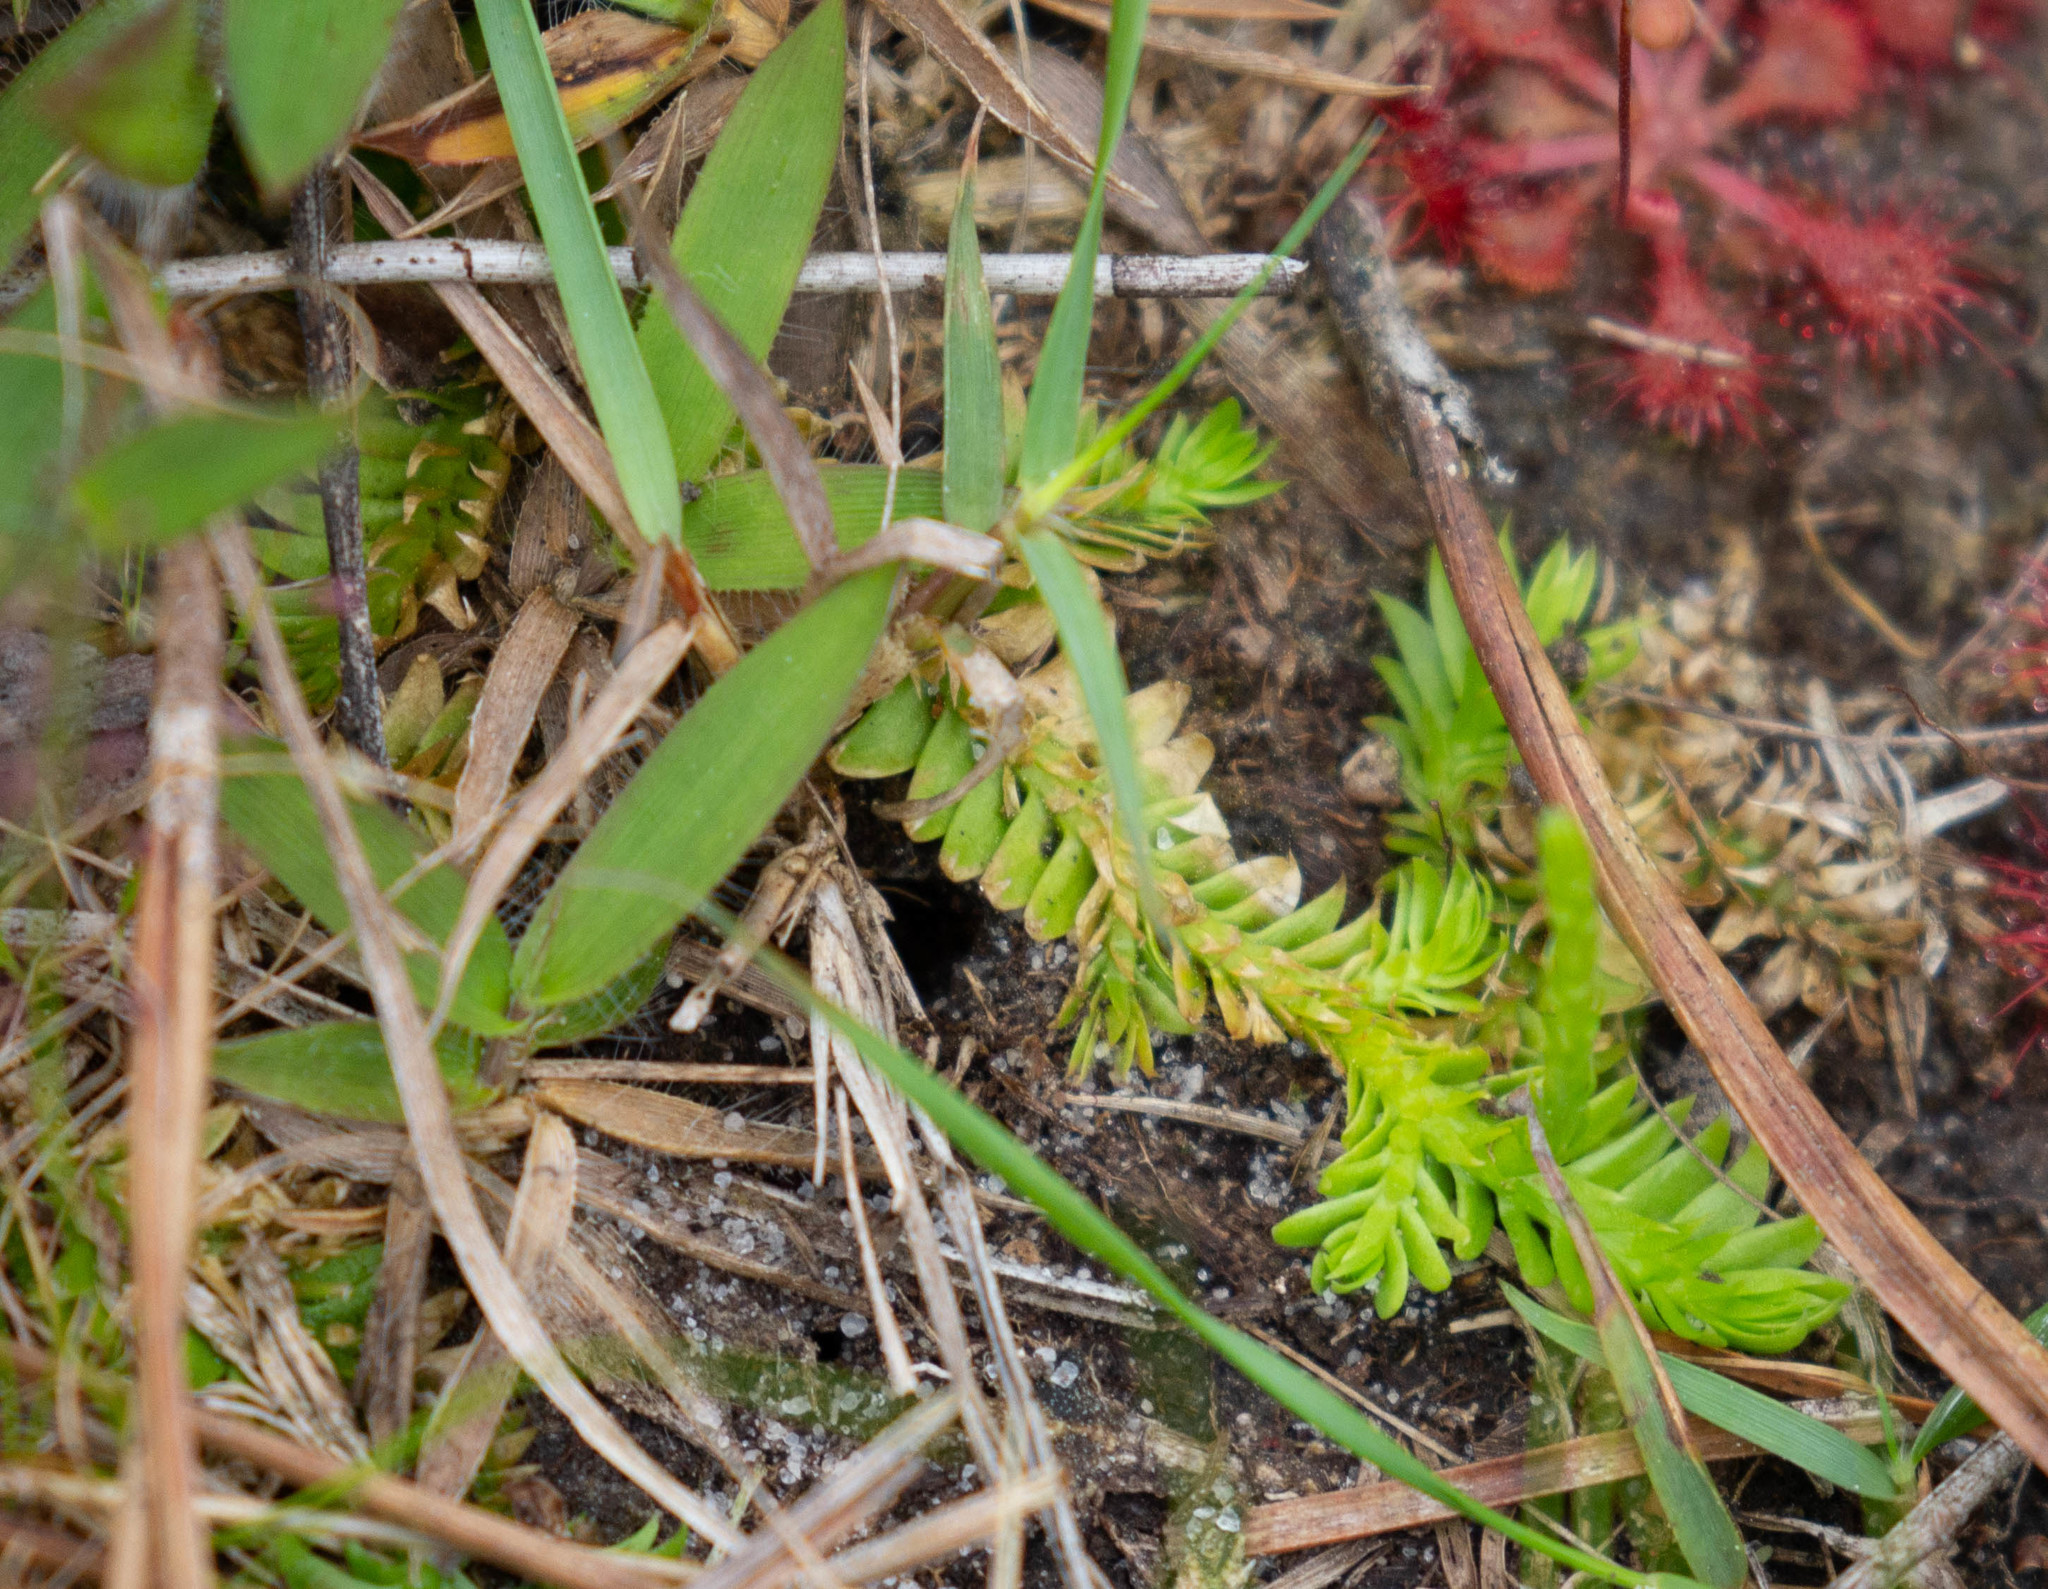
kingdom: Plantae
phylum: Tracheophyta
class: Lycopodiopsida
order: Lycopodiales
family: Lycopodiaceae
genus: Pseudolycopodiella
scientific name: Pseudolycopodiella caroliniana
